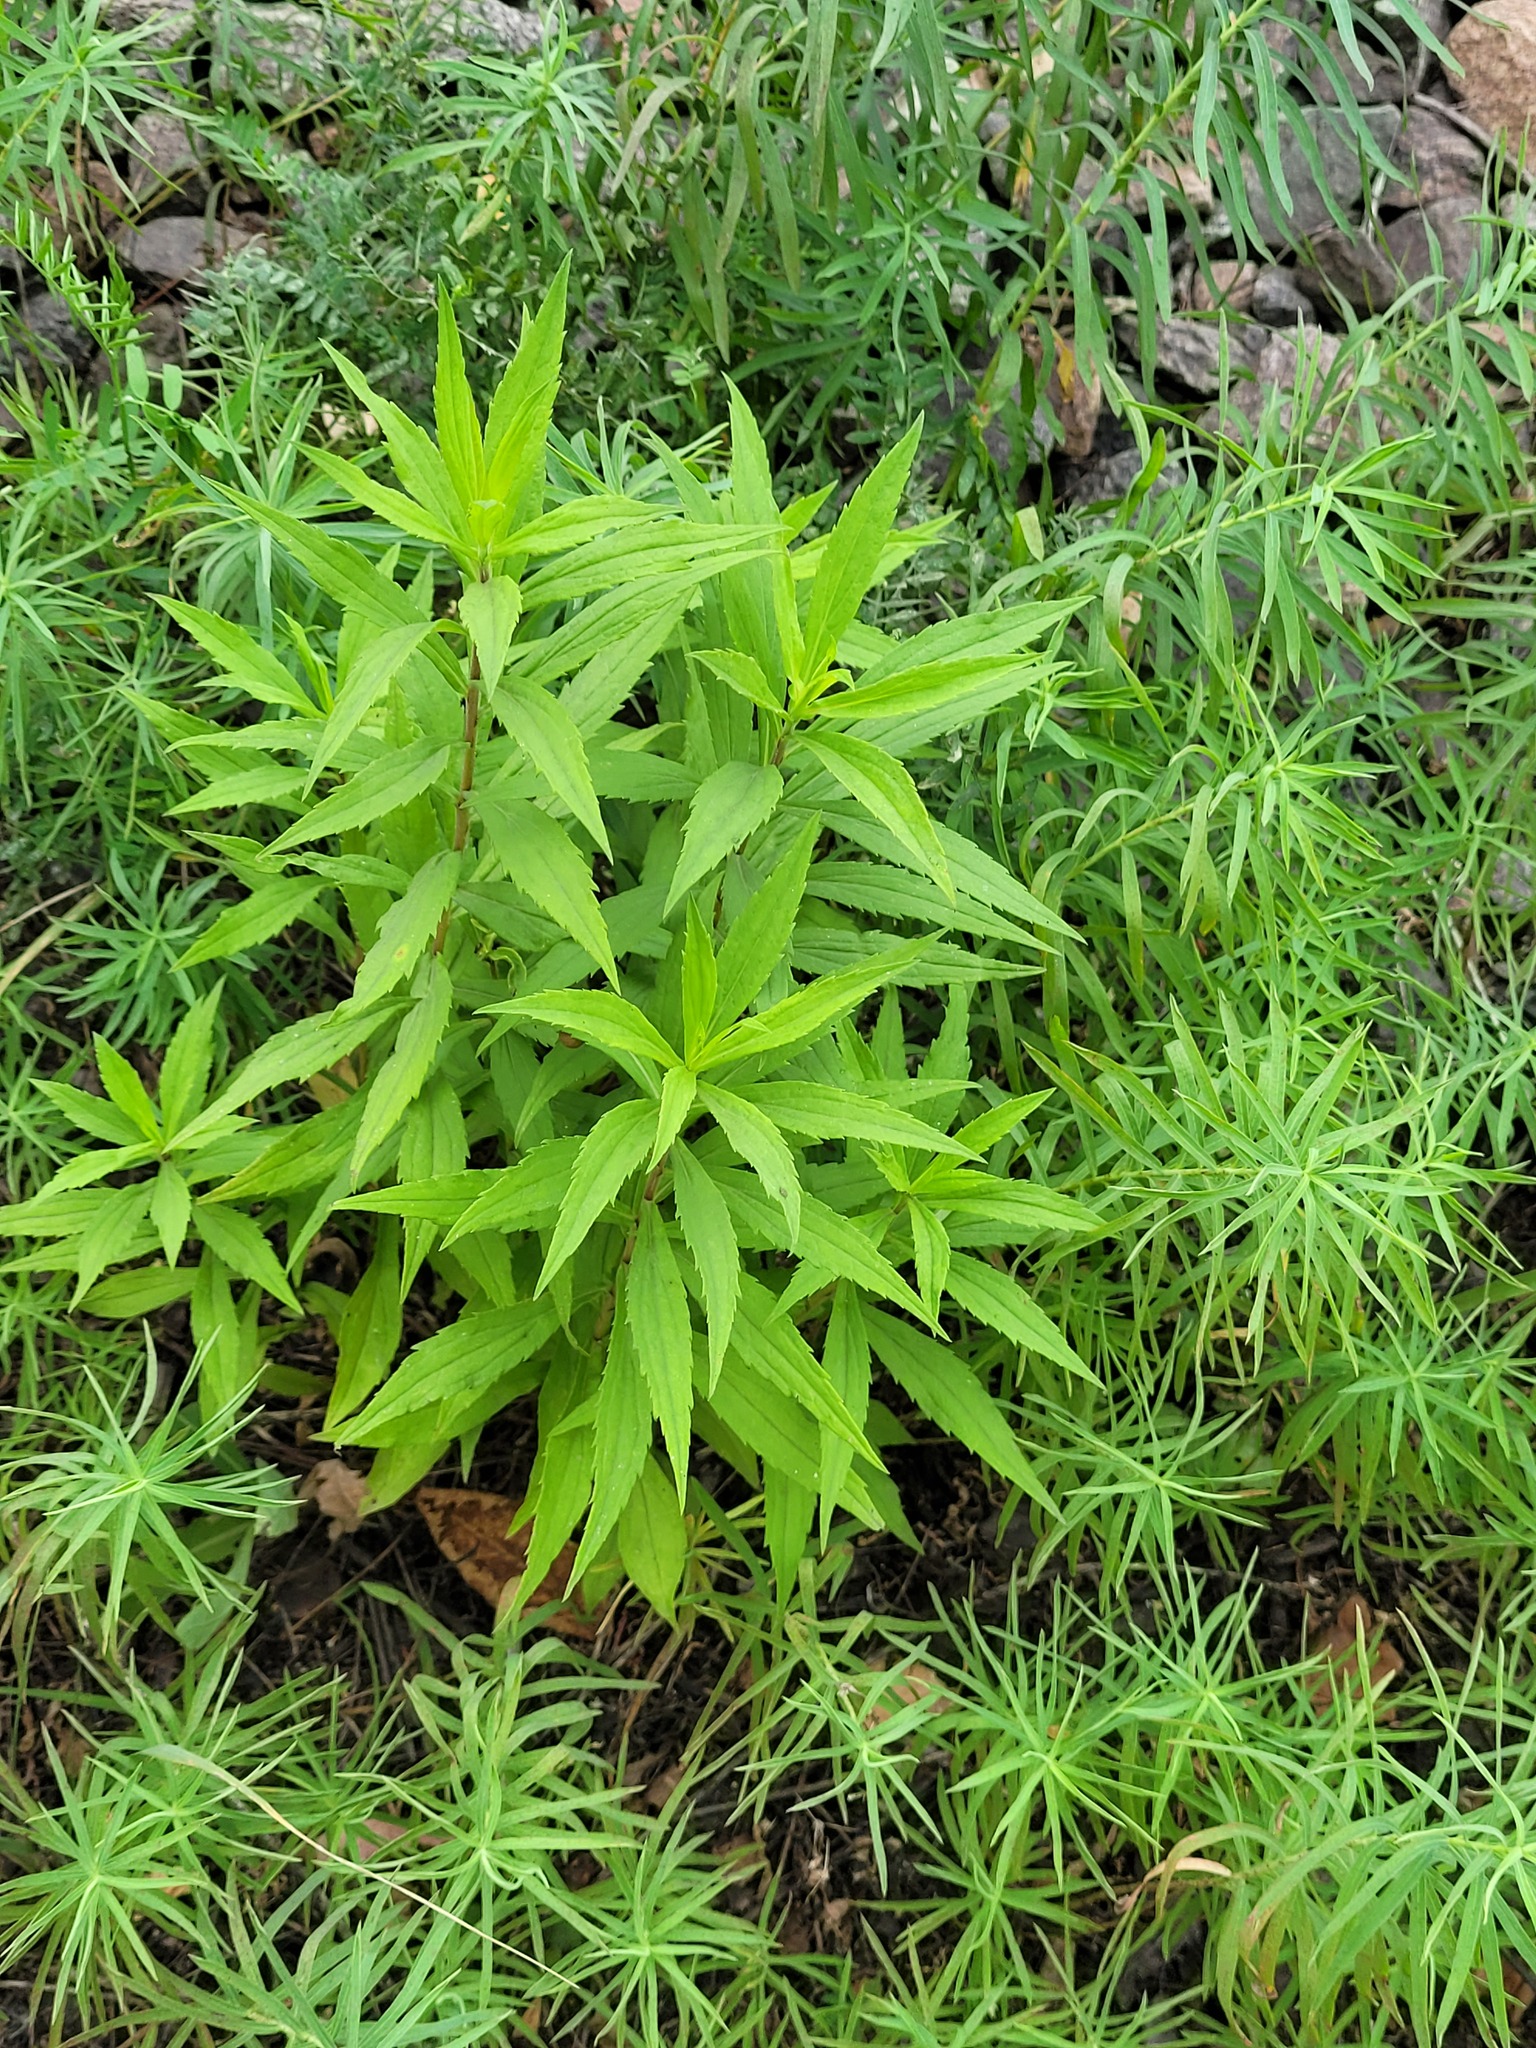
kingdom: Plantae
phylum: Tracheophyta
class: Magnoliopsida
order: Asterales
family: Asteraceae
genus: Solidago
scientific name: Solidago canadensis
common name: Canada goldenrod
